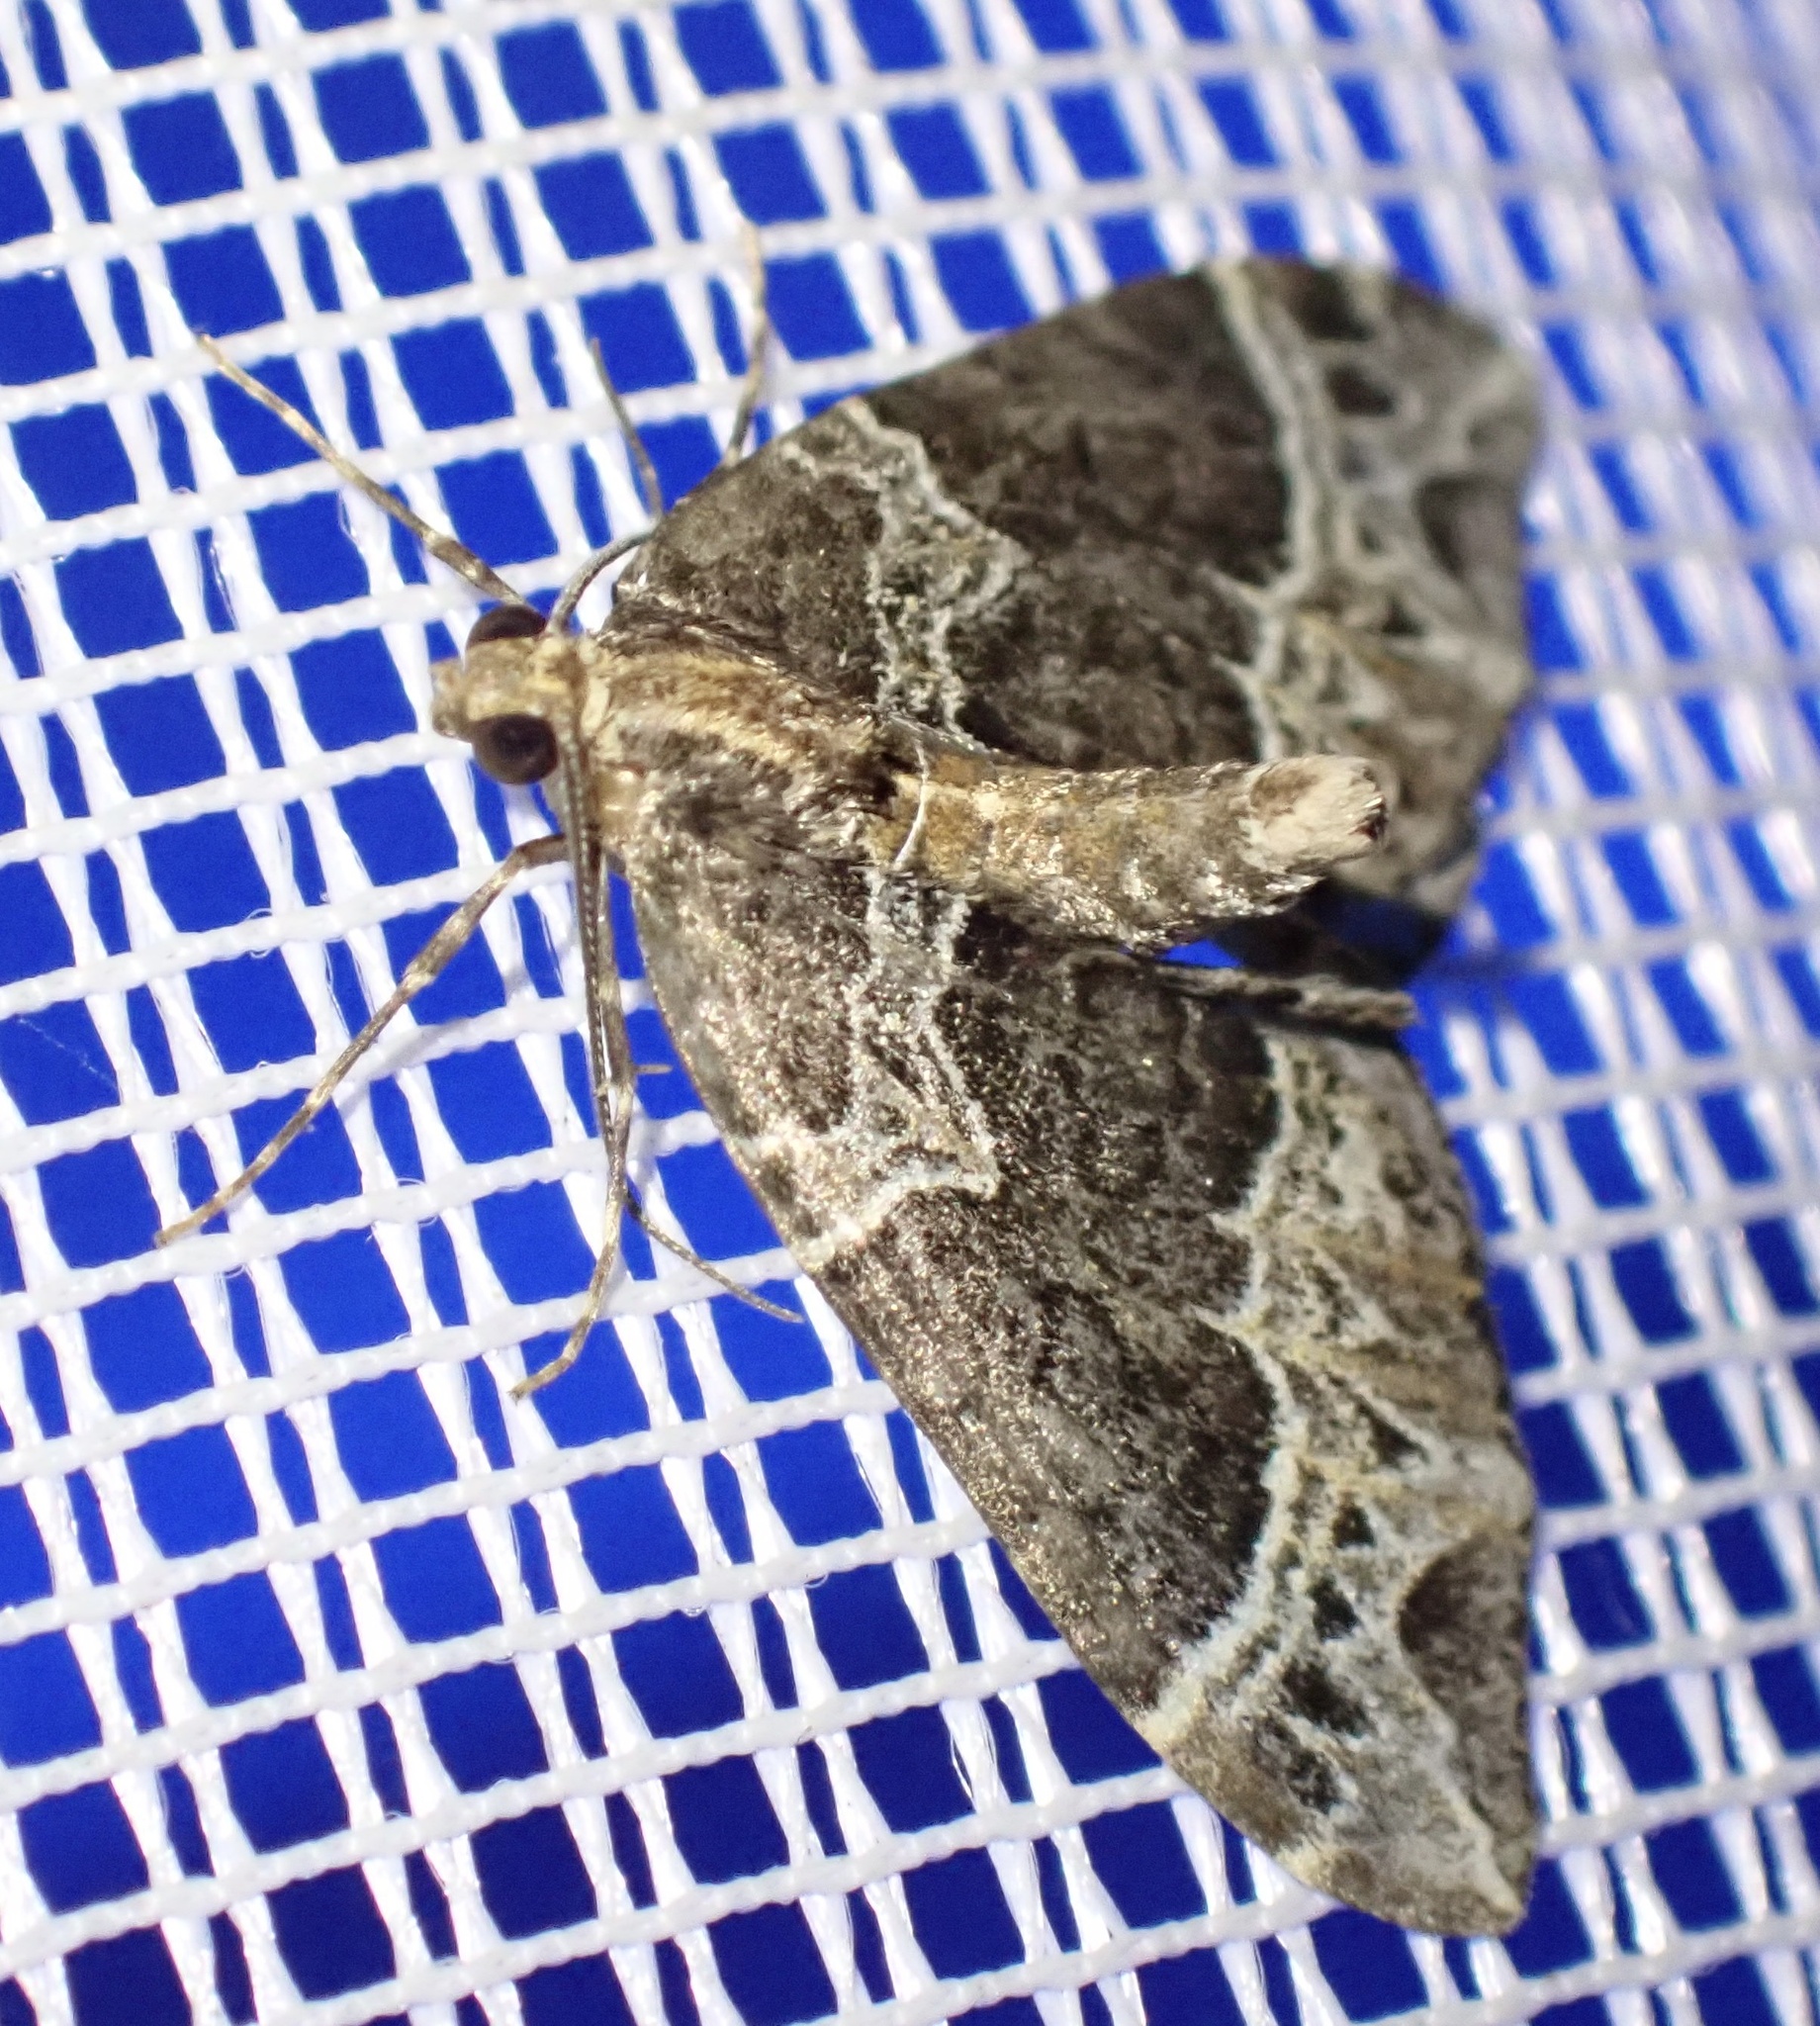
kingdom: Animalia
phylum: Arthropoda
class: Insecta
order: Lepidoptera
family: Geometridae
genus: Ecliptopera
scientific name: Ecliptopera silaceata
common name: Small phoenix
